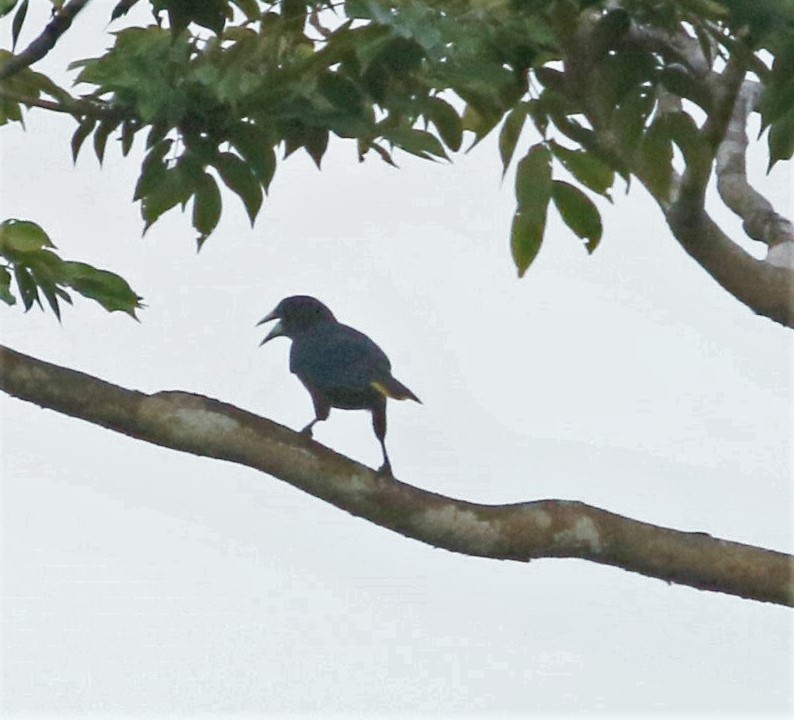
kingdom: Animalia
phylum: Chordata
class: Aves
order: Passeriformes
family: Icteridae
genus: Psarocolius
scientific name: Psarocolius wagleri
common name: Chestnut-headed oropendola
